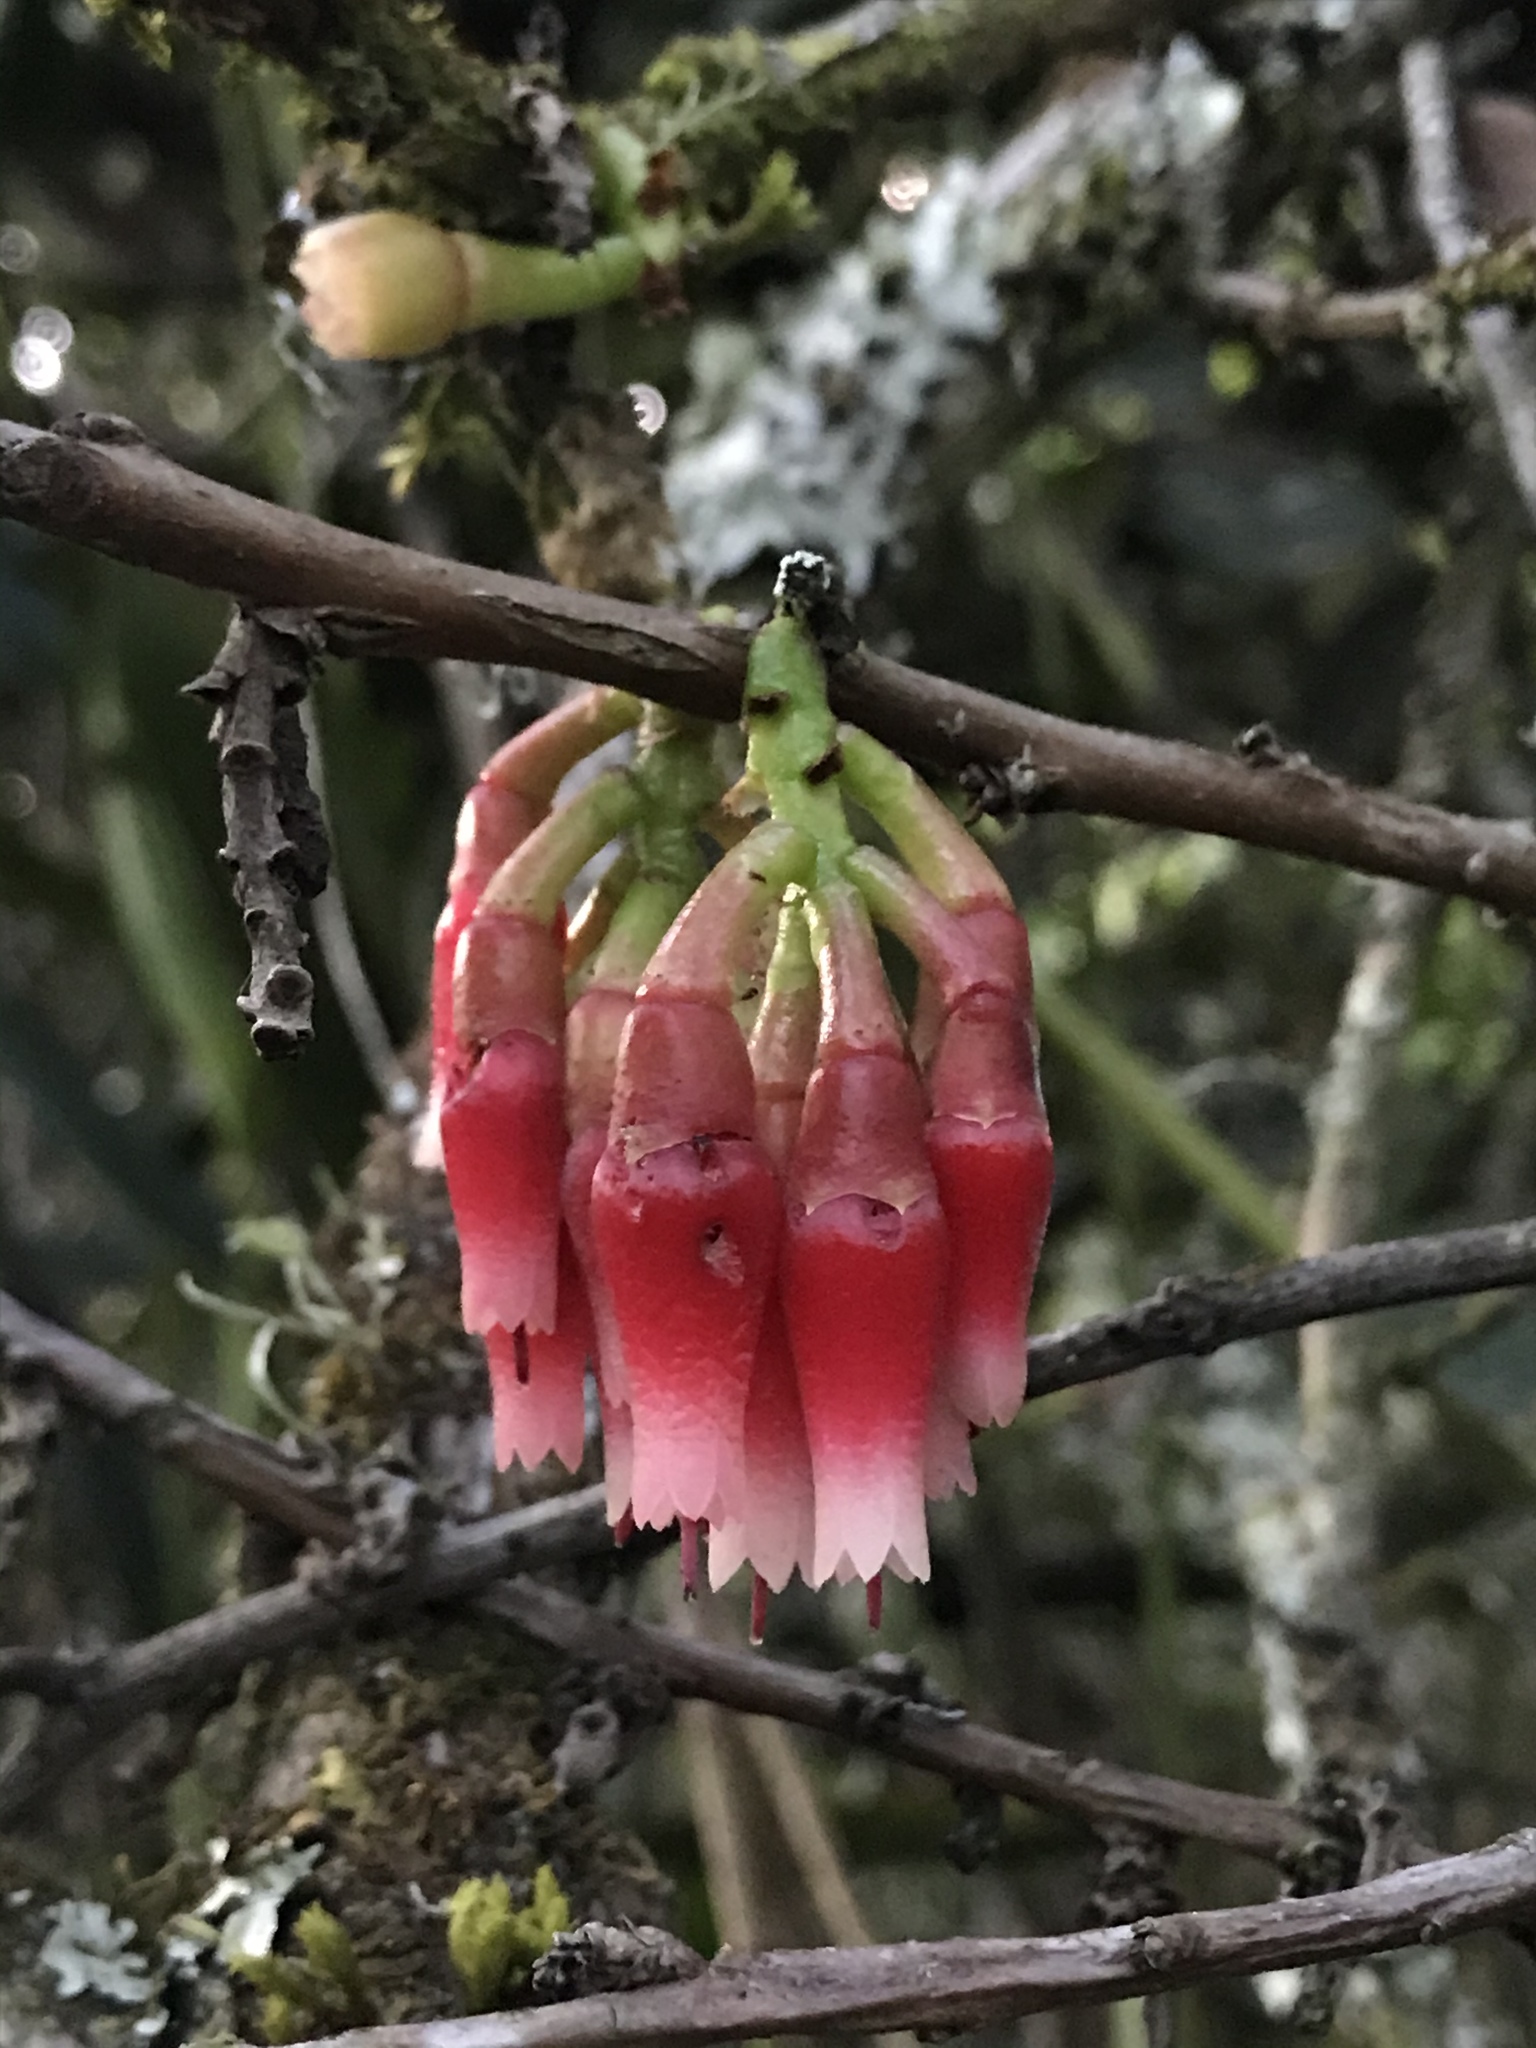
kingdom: Plantae
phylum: Tracheophyta
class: Magnoliopsida
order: Ericales
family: Ericaceae
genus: Macleania
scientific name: Macleania rupestris
